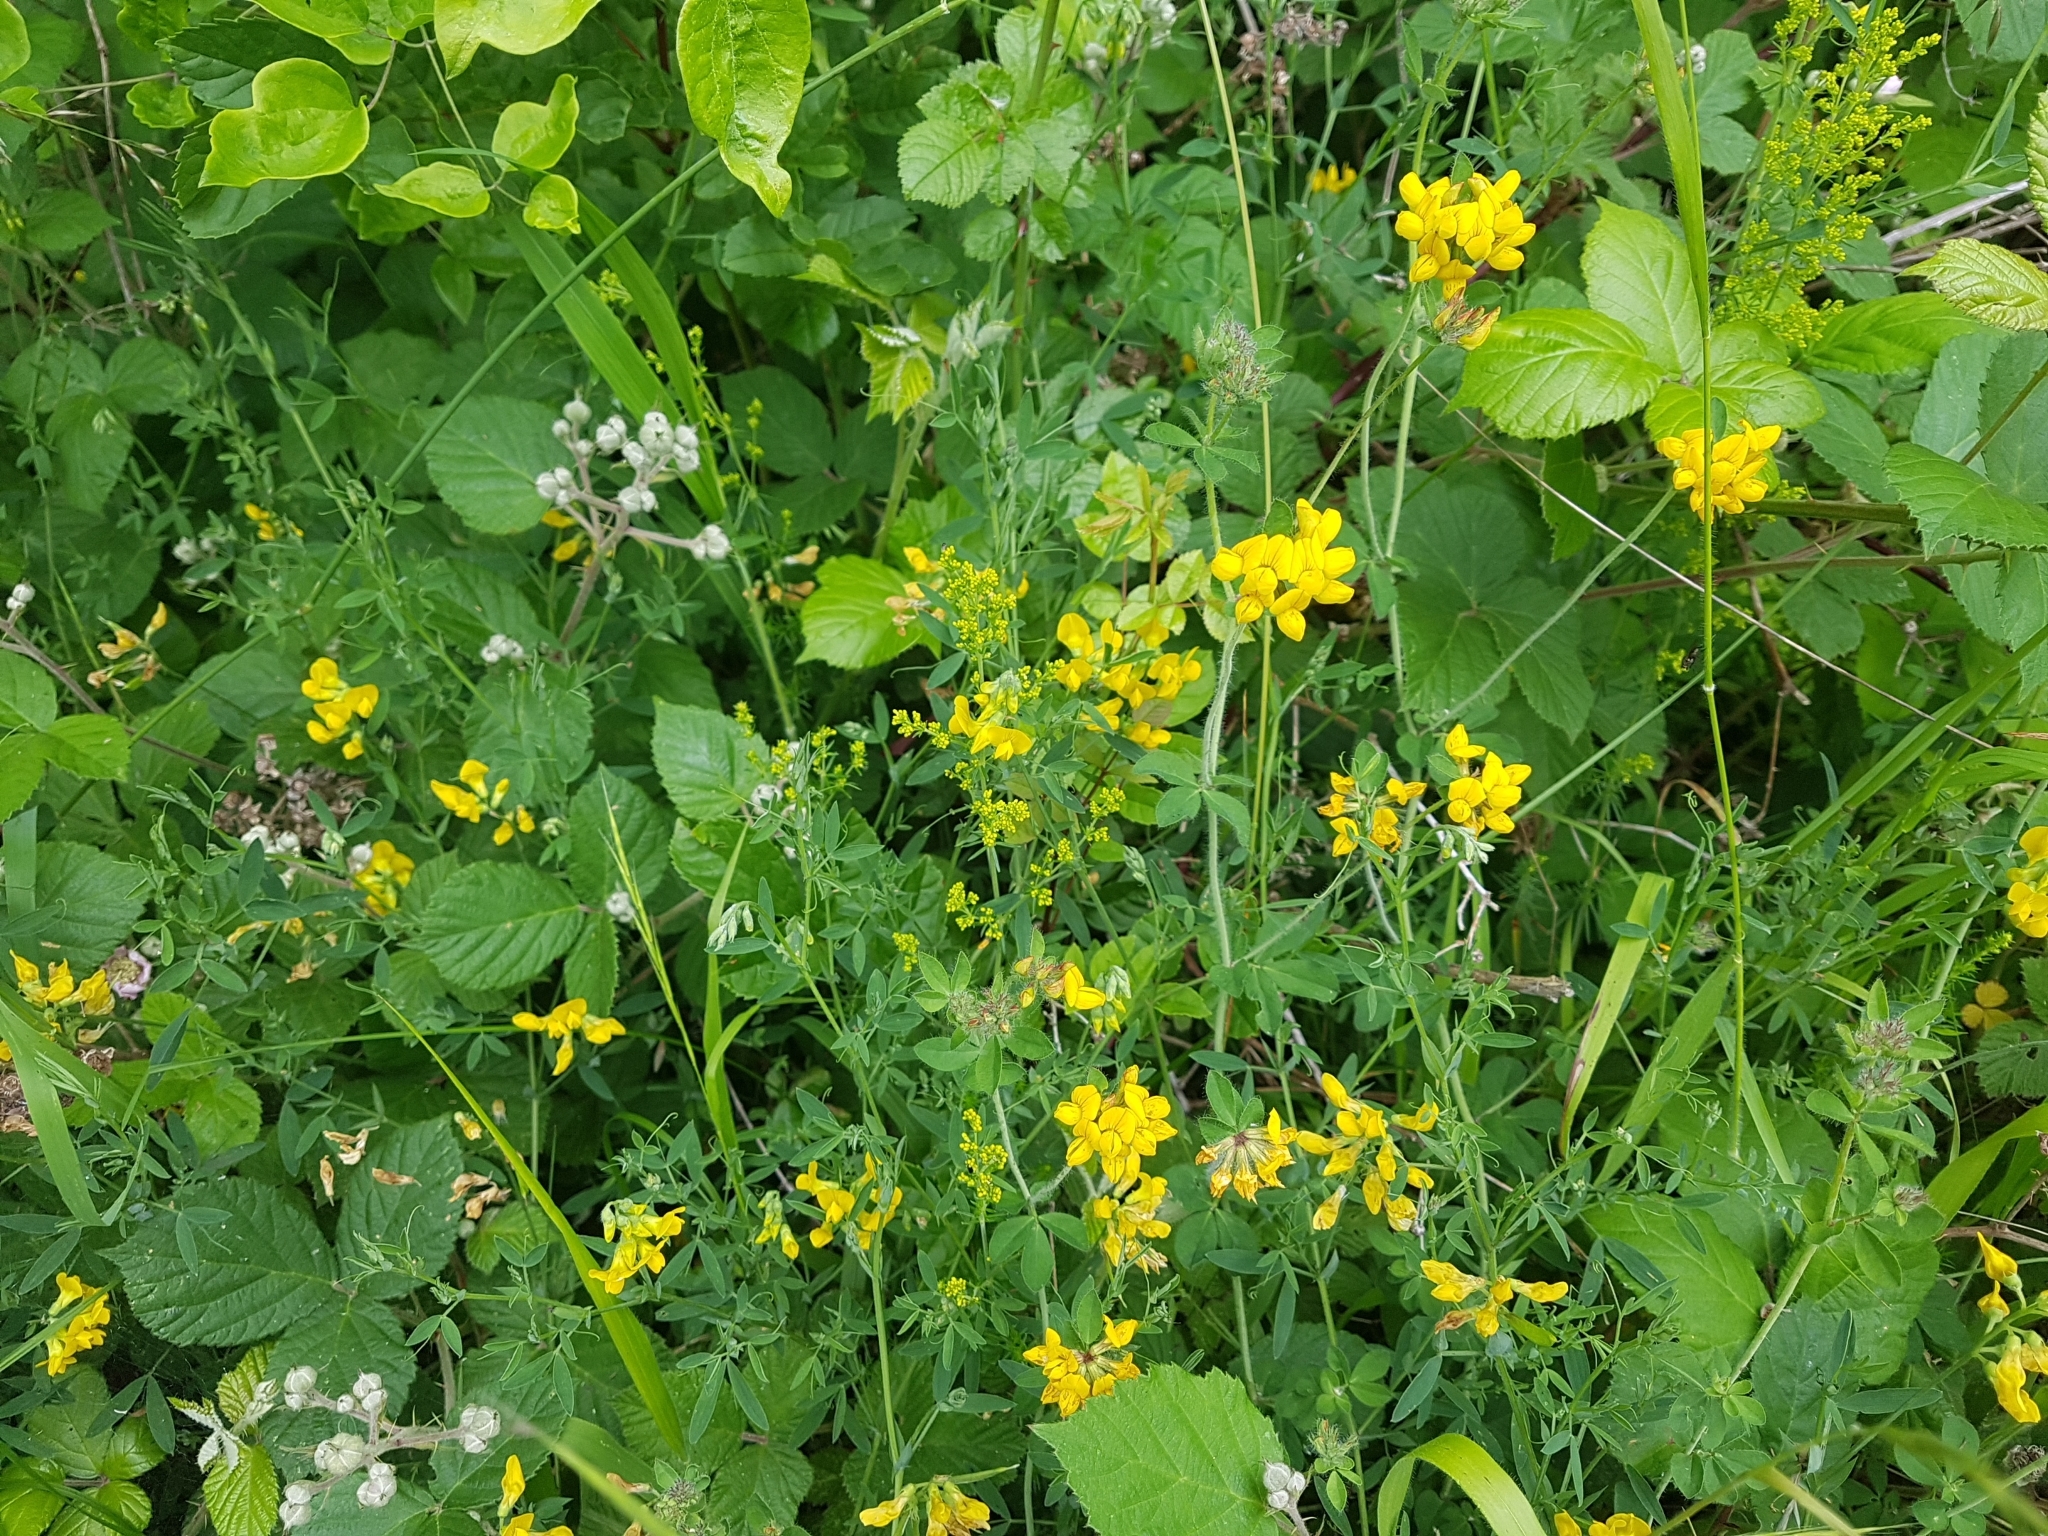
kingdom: Plantae
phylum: Tracheophyta
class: Magnoliopsida
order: Fabales
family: Fabaceae
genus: Lotus
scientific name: Lotus pedunculatus
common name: Greater birdsfoot-trefoil
